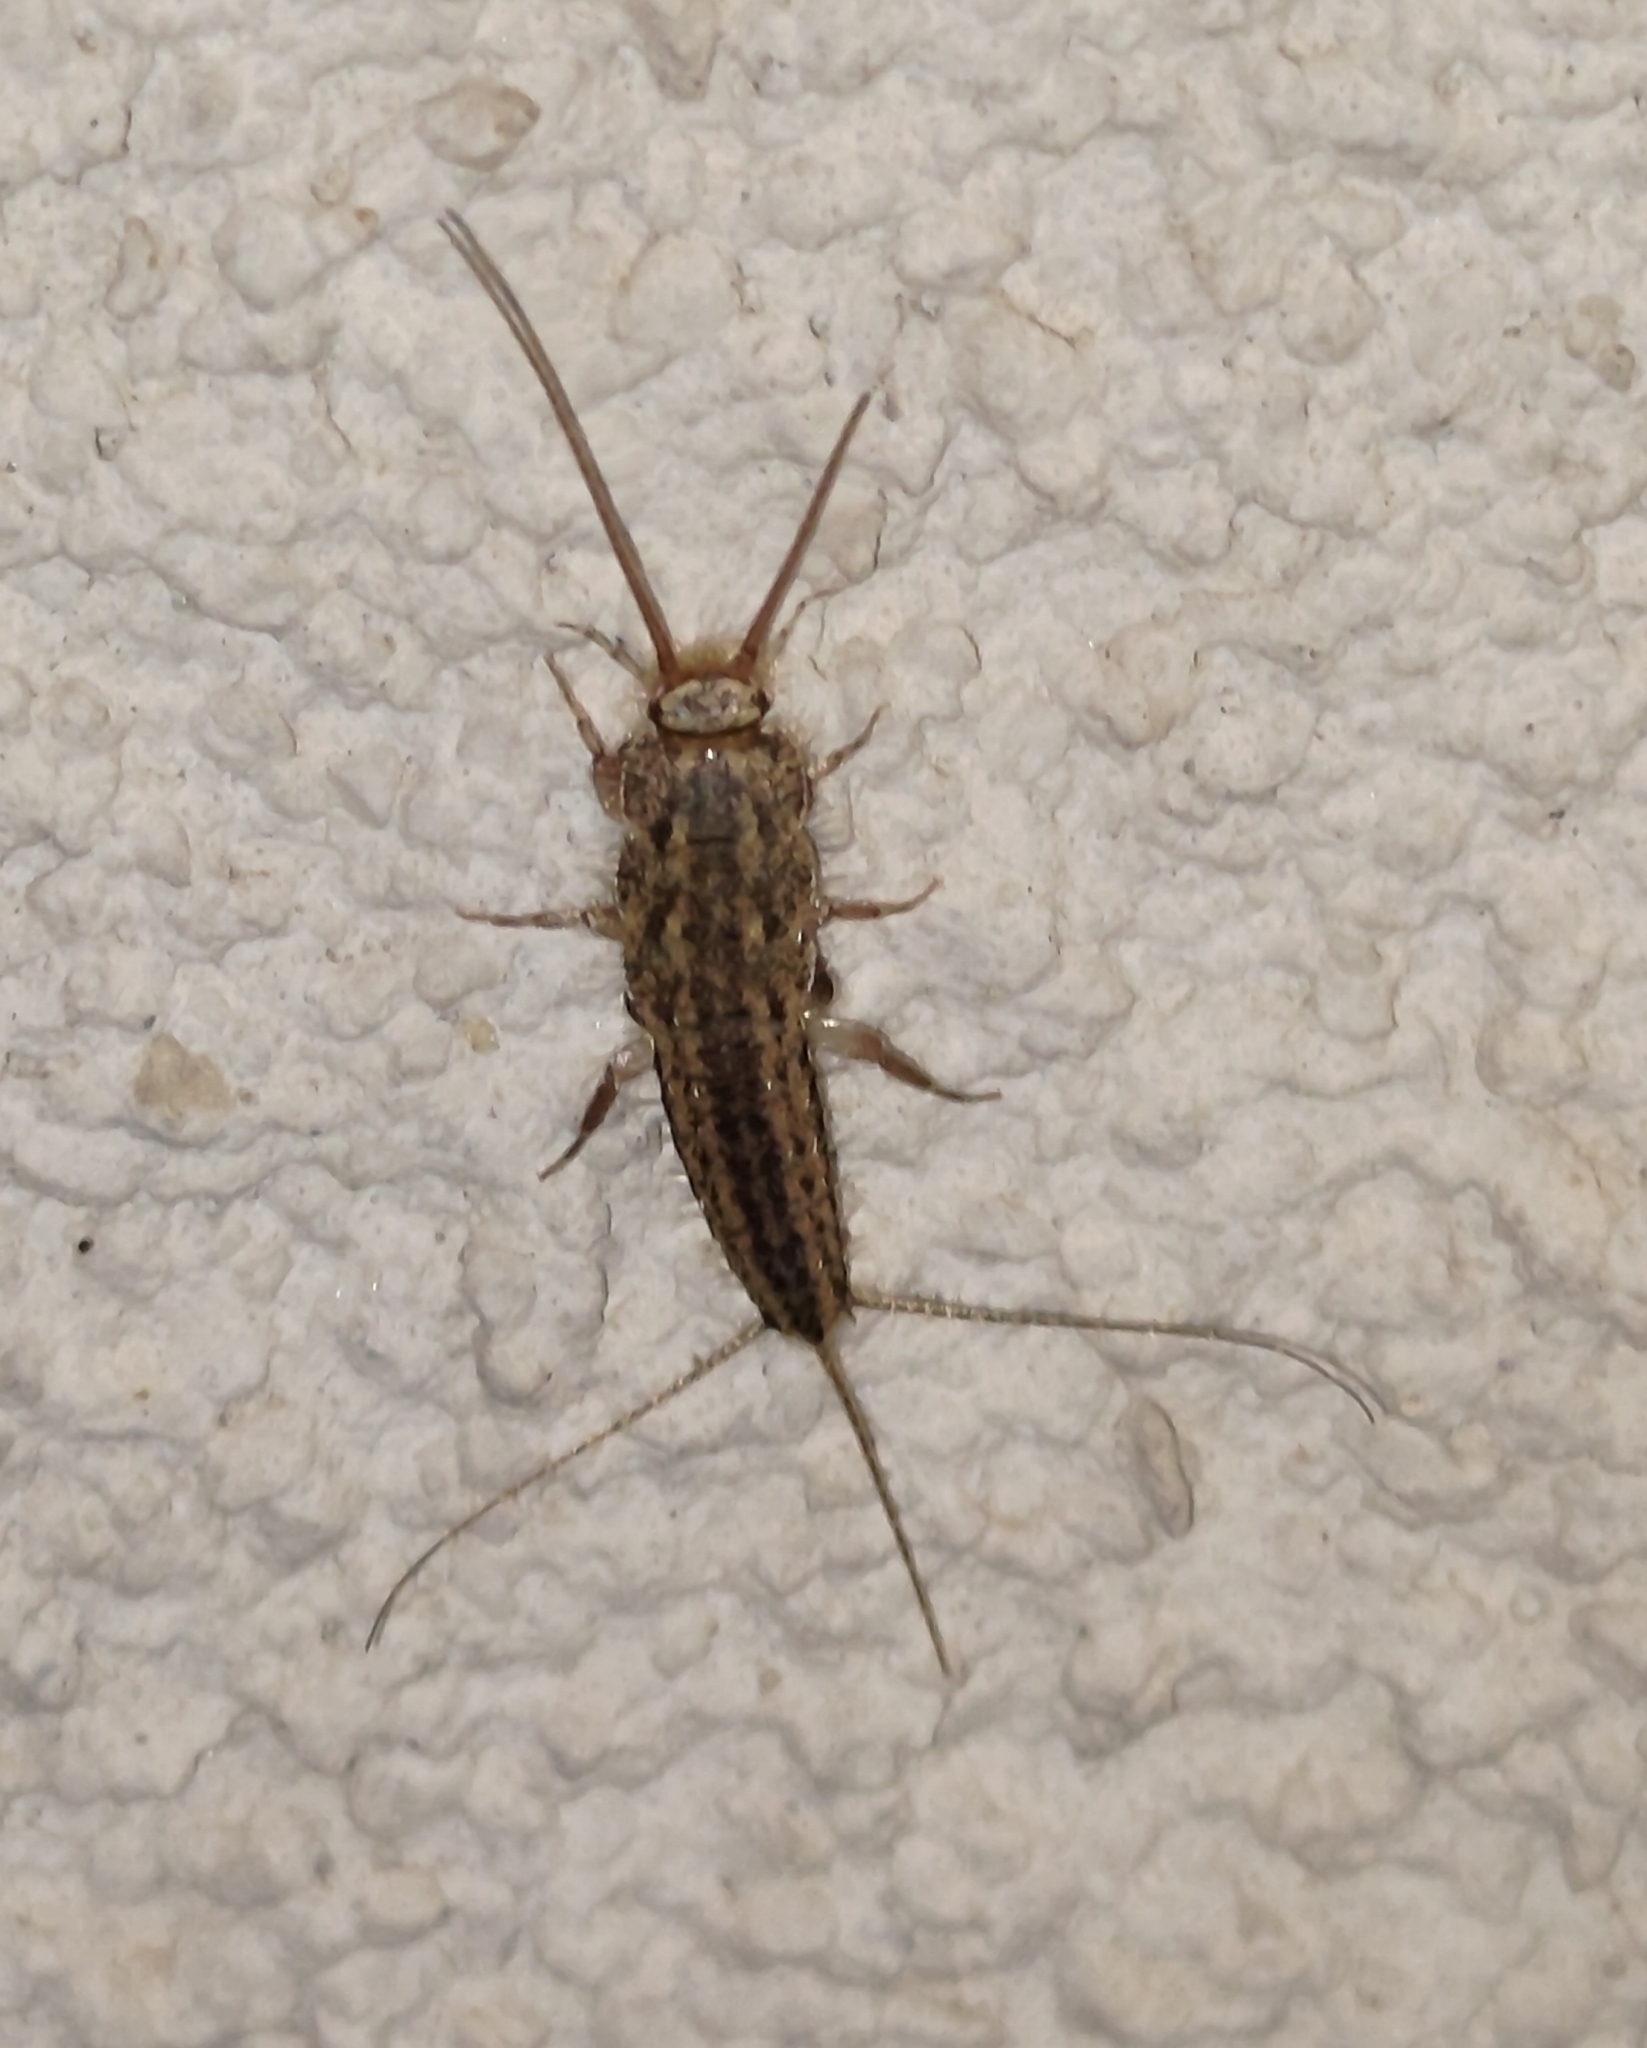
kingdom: Animalia
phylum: Arthropoda
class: Insecta
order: Zygentoma
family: Lepismatidae
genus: Ctenolepisma
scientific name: Ctenolepisma lineata
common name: Four-lined silverfish
